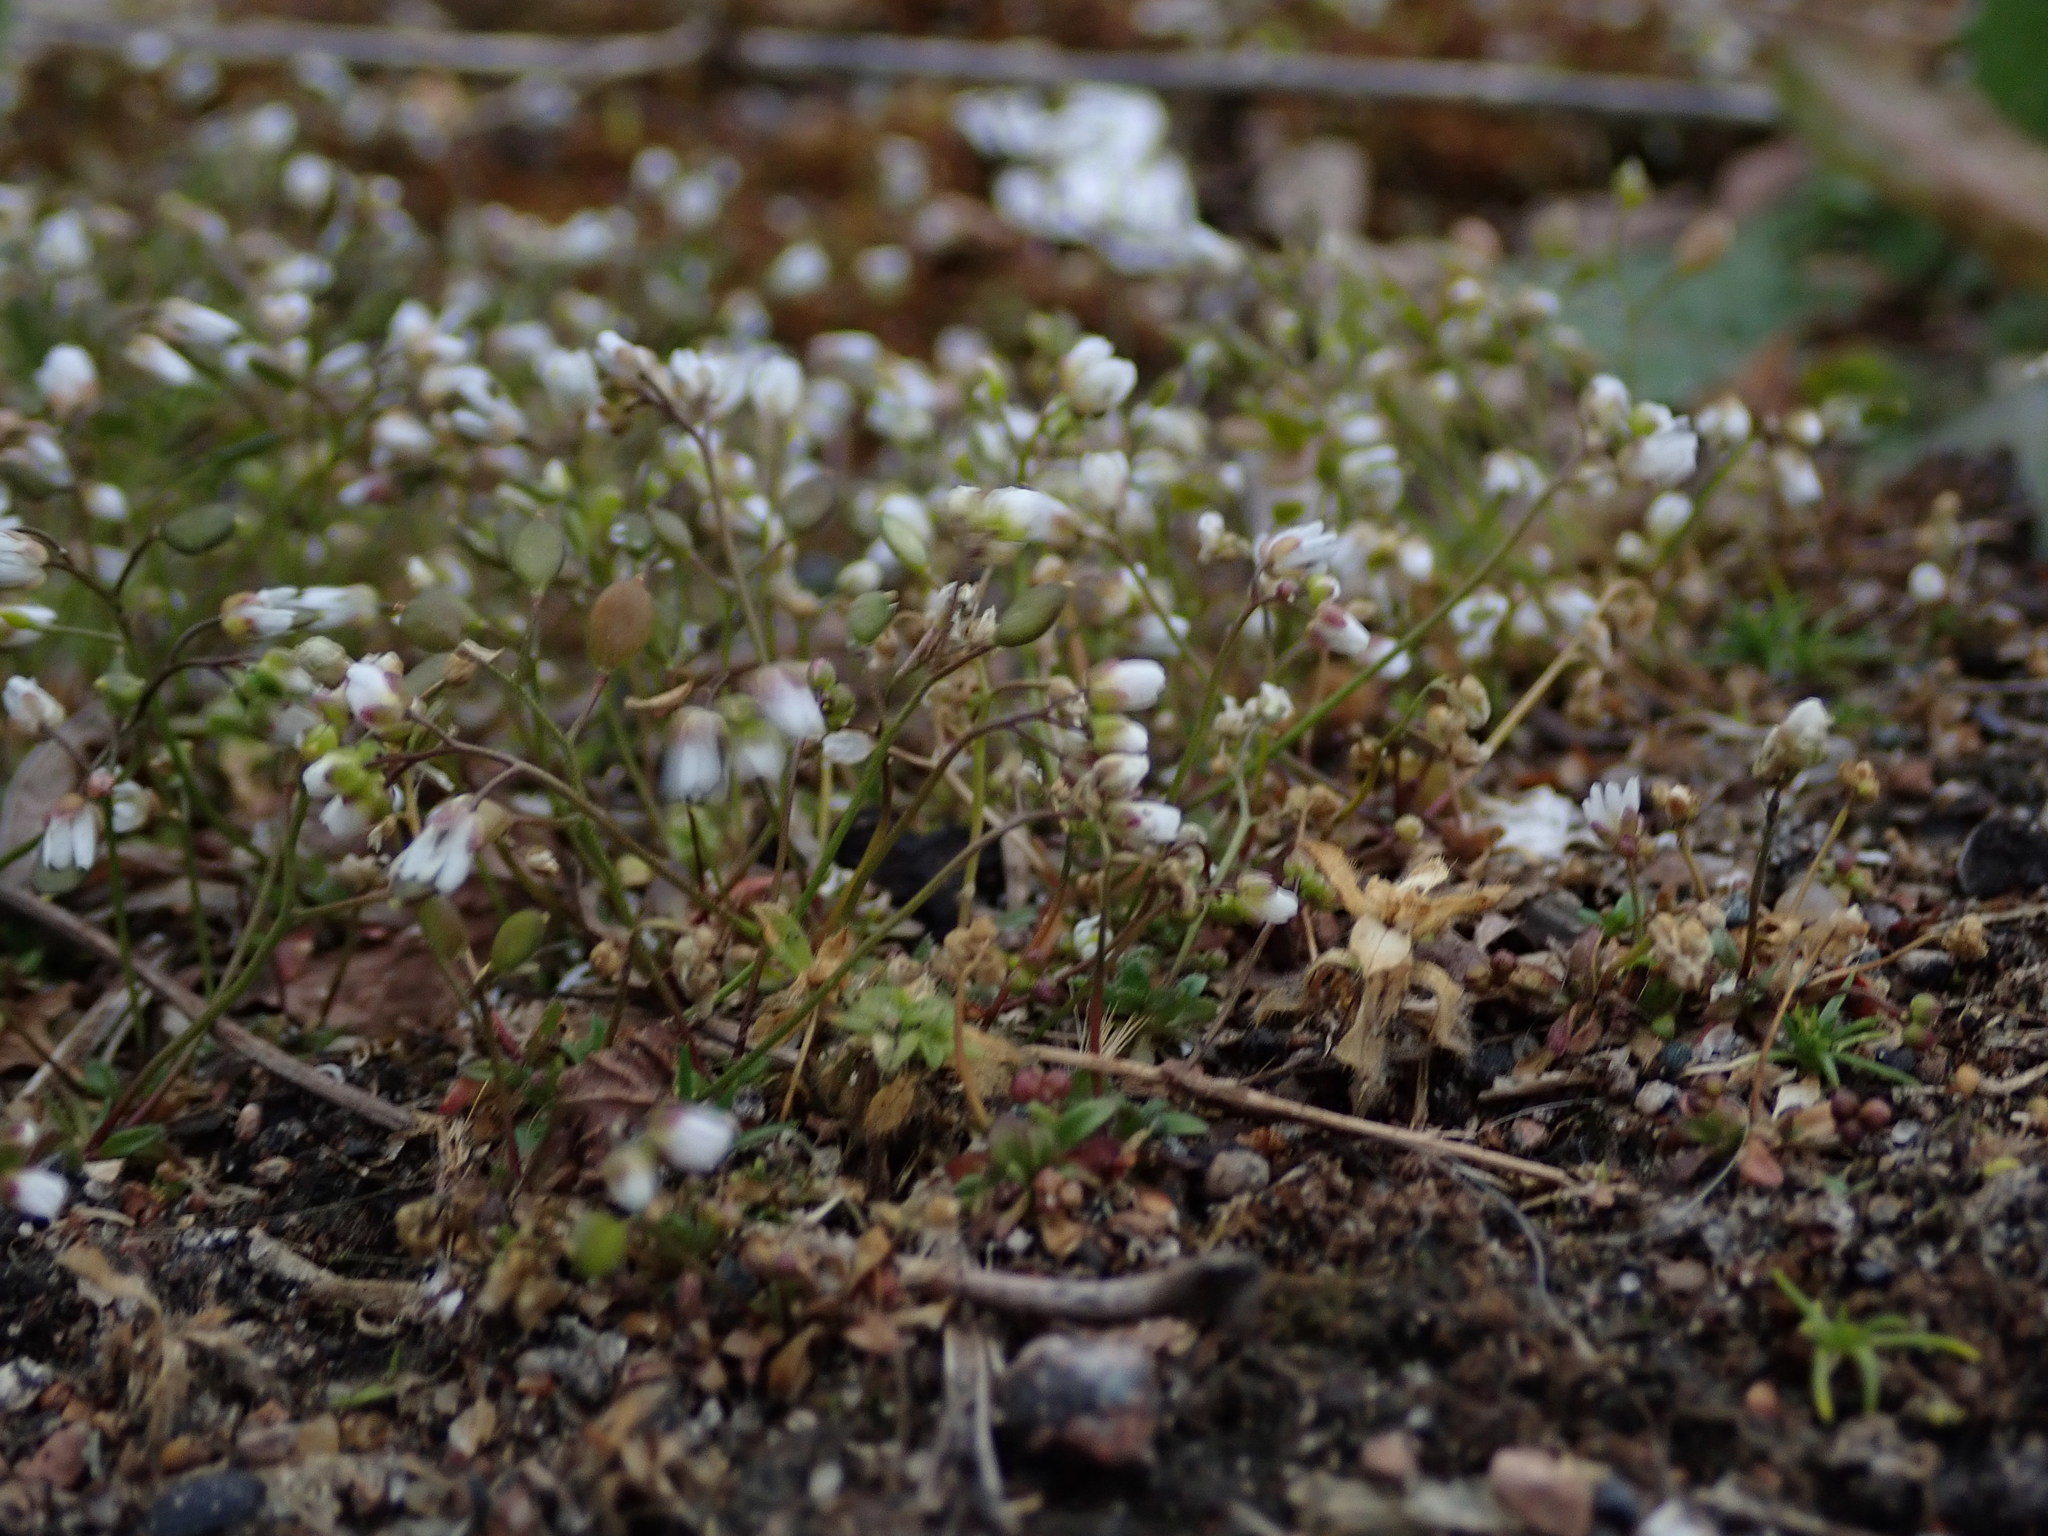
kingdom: Plantae
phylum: Tracheophyta
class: Magnoliopsida
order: Brassicales
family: Brassicaceae
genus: Draba
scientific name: Draba verna
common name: Spring draba
